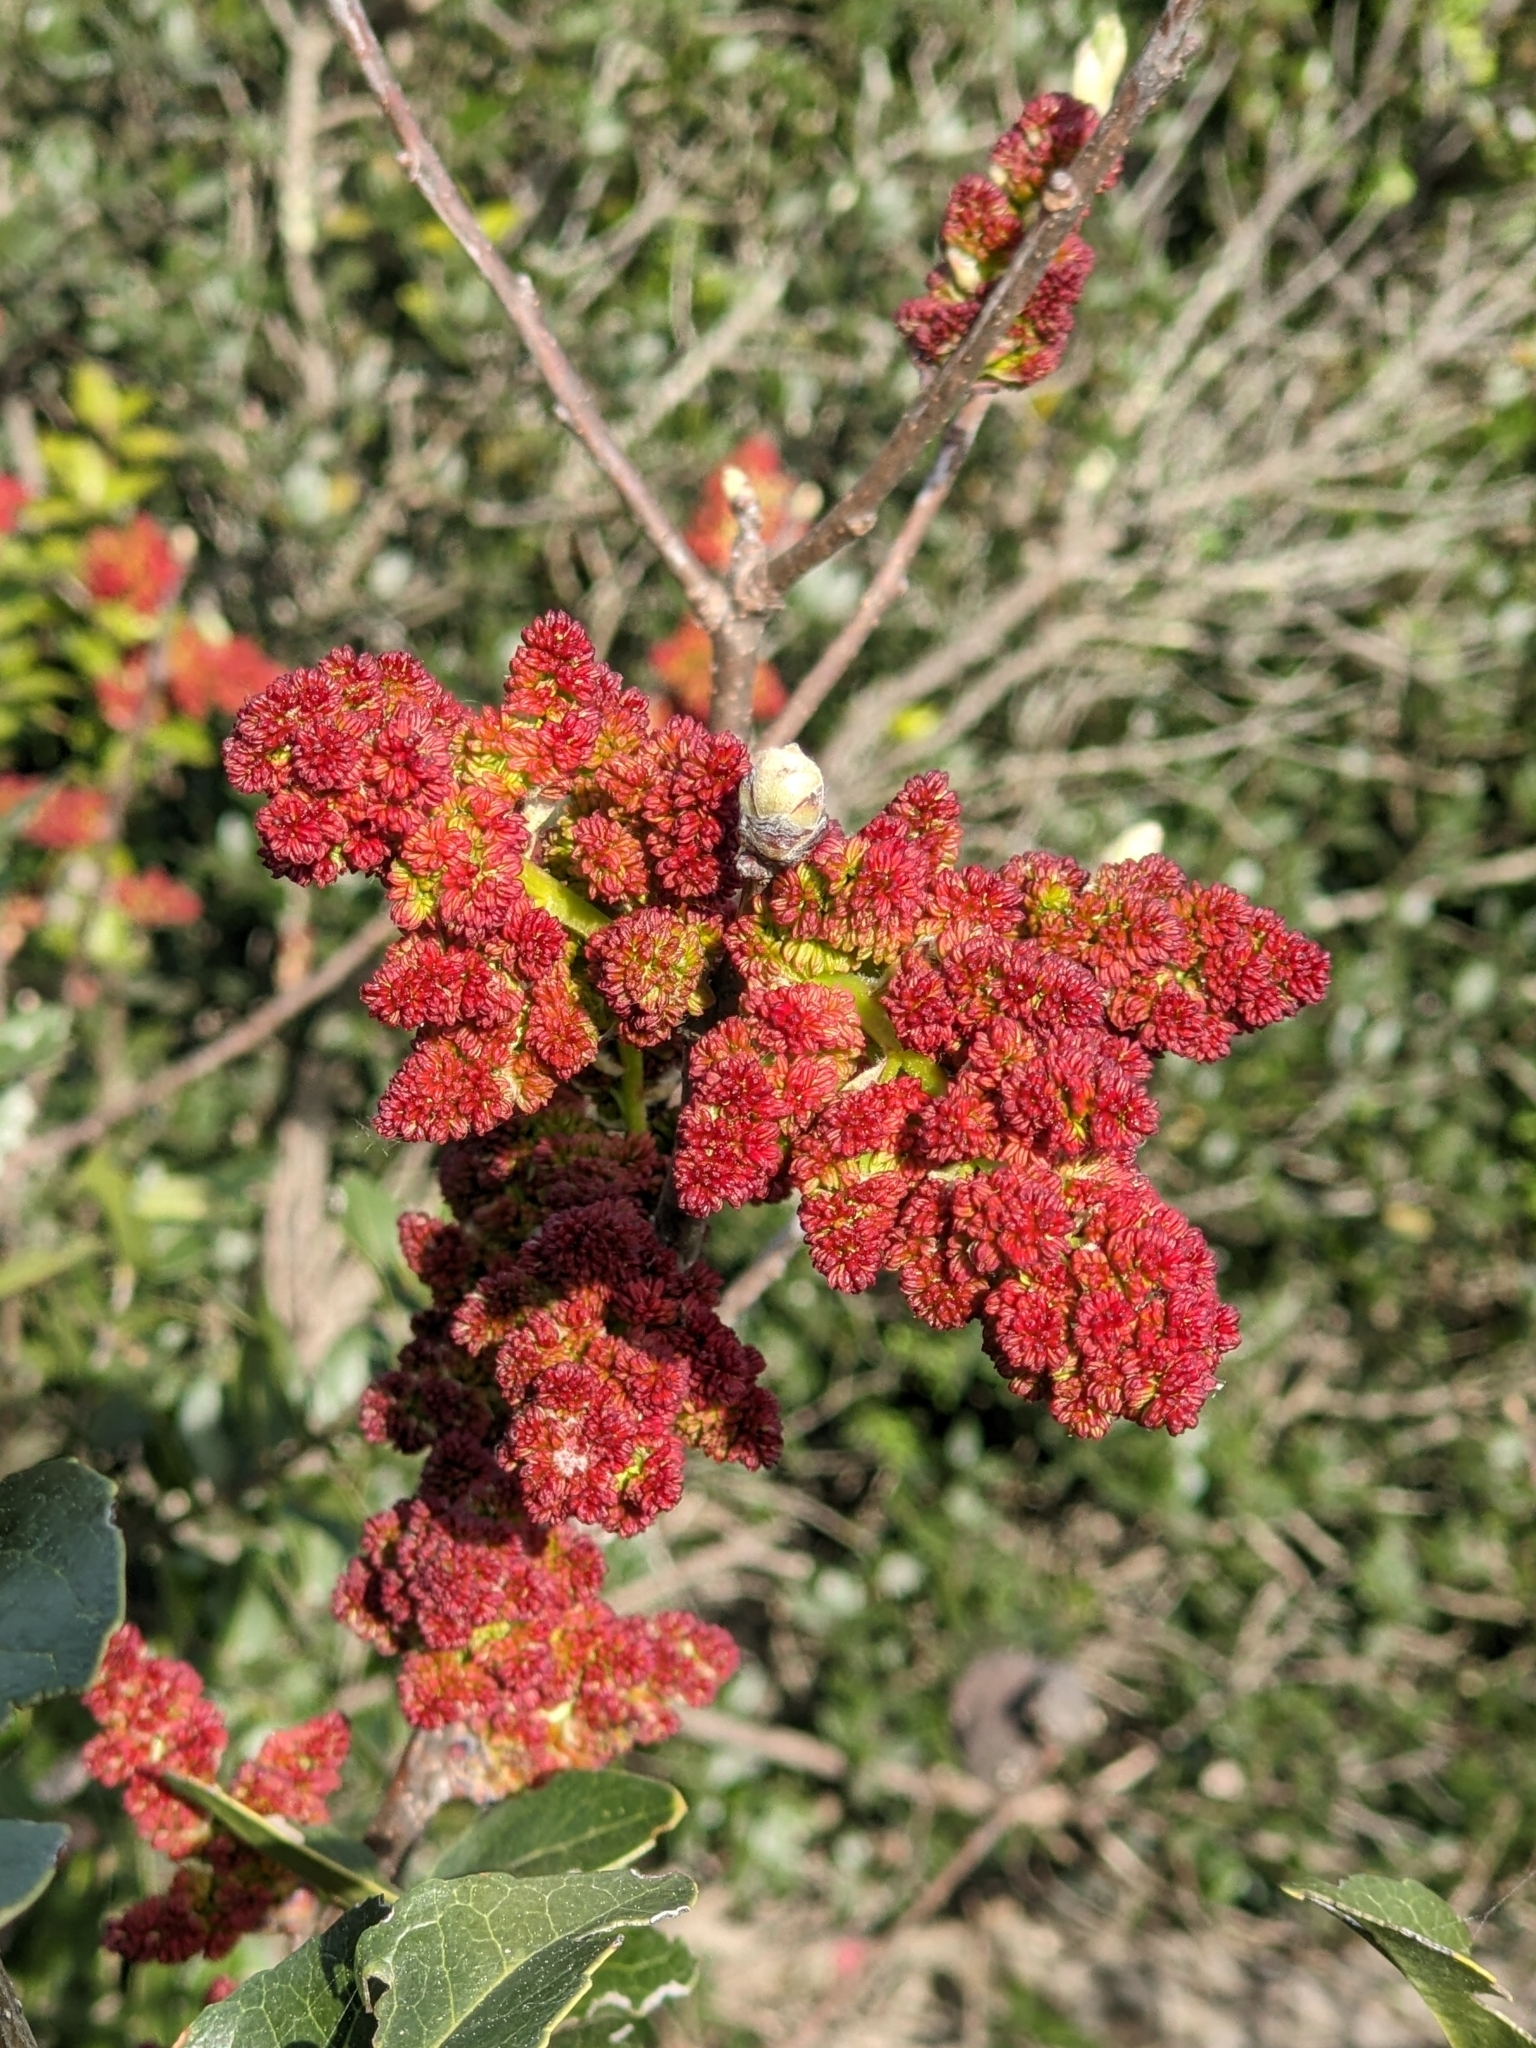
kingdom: Plantae
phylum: Tracheophyta
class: Magnoliopsida
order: Sapindales
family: Anacardiaceae
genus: Pistacia
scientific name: Pistacia terebinthus
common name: Terebinth
